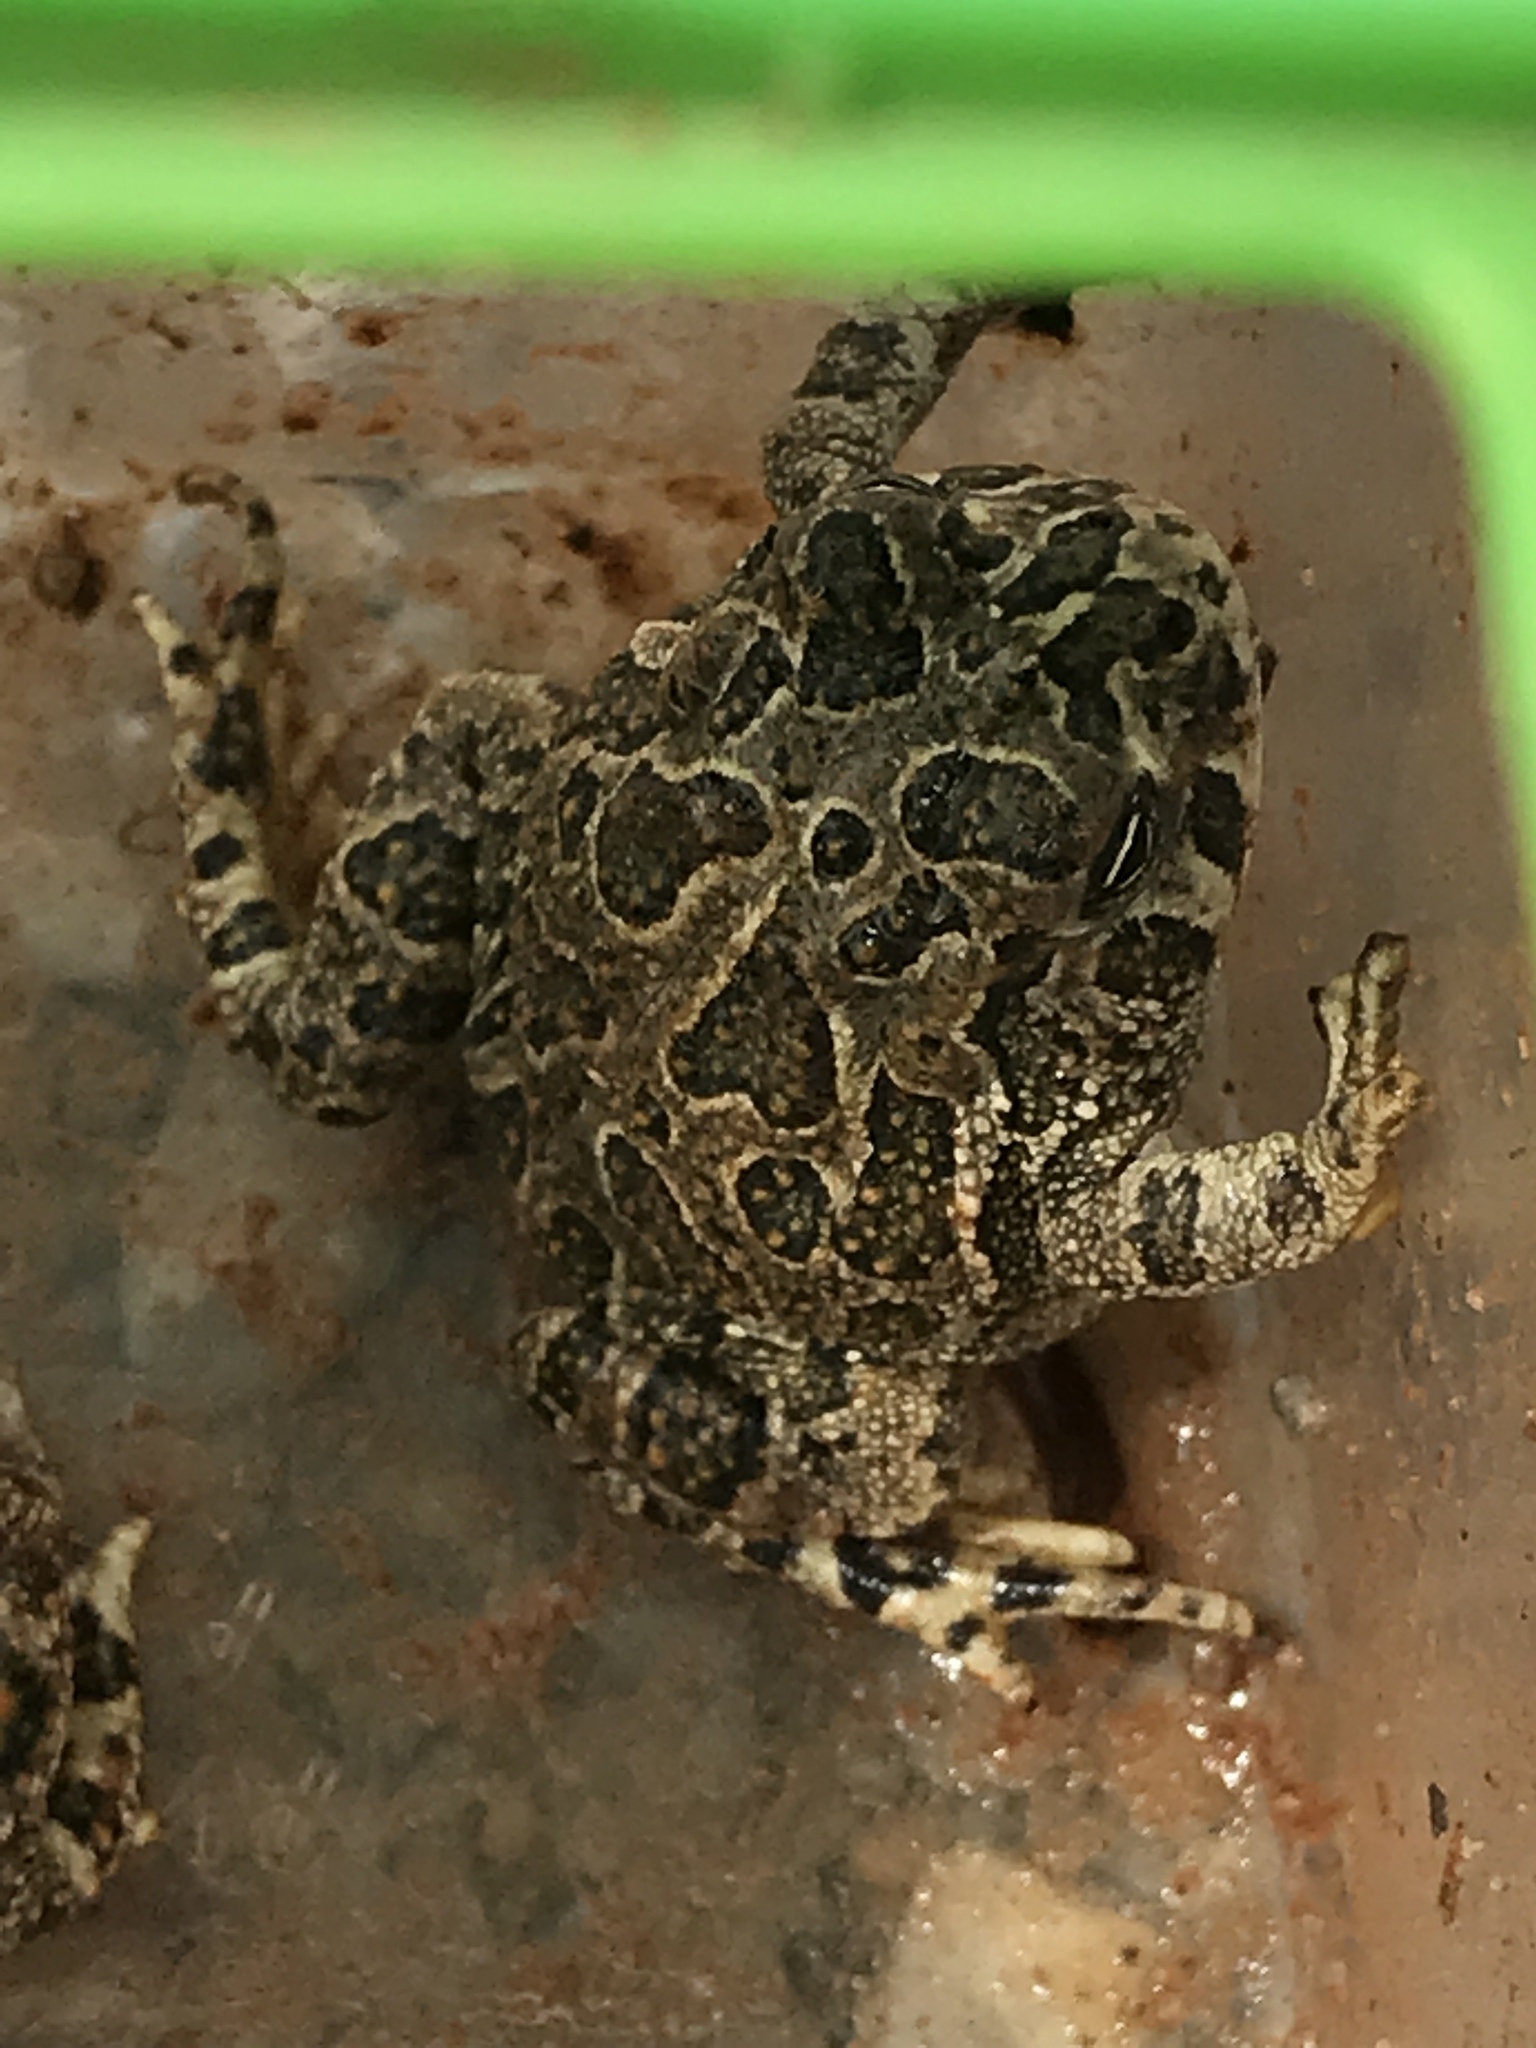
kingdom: Animalia
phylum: Chordata
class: Amphibia
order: Anura
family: Bufonidae
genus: Anaxyrus
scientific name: Anaxyrus cognatus
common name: Great plains toad
